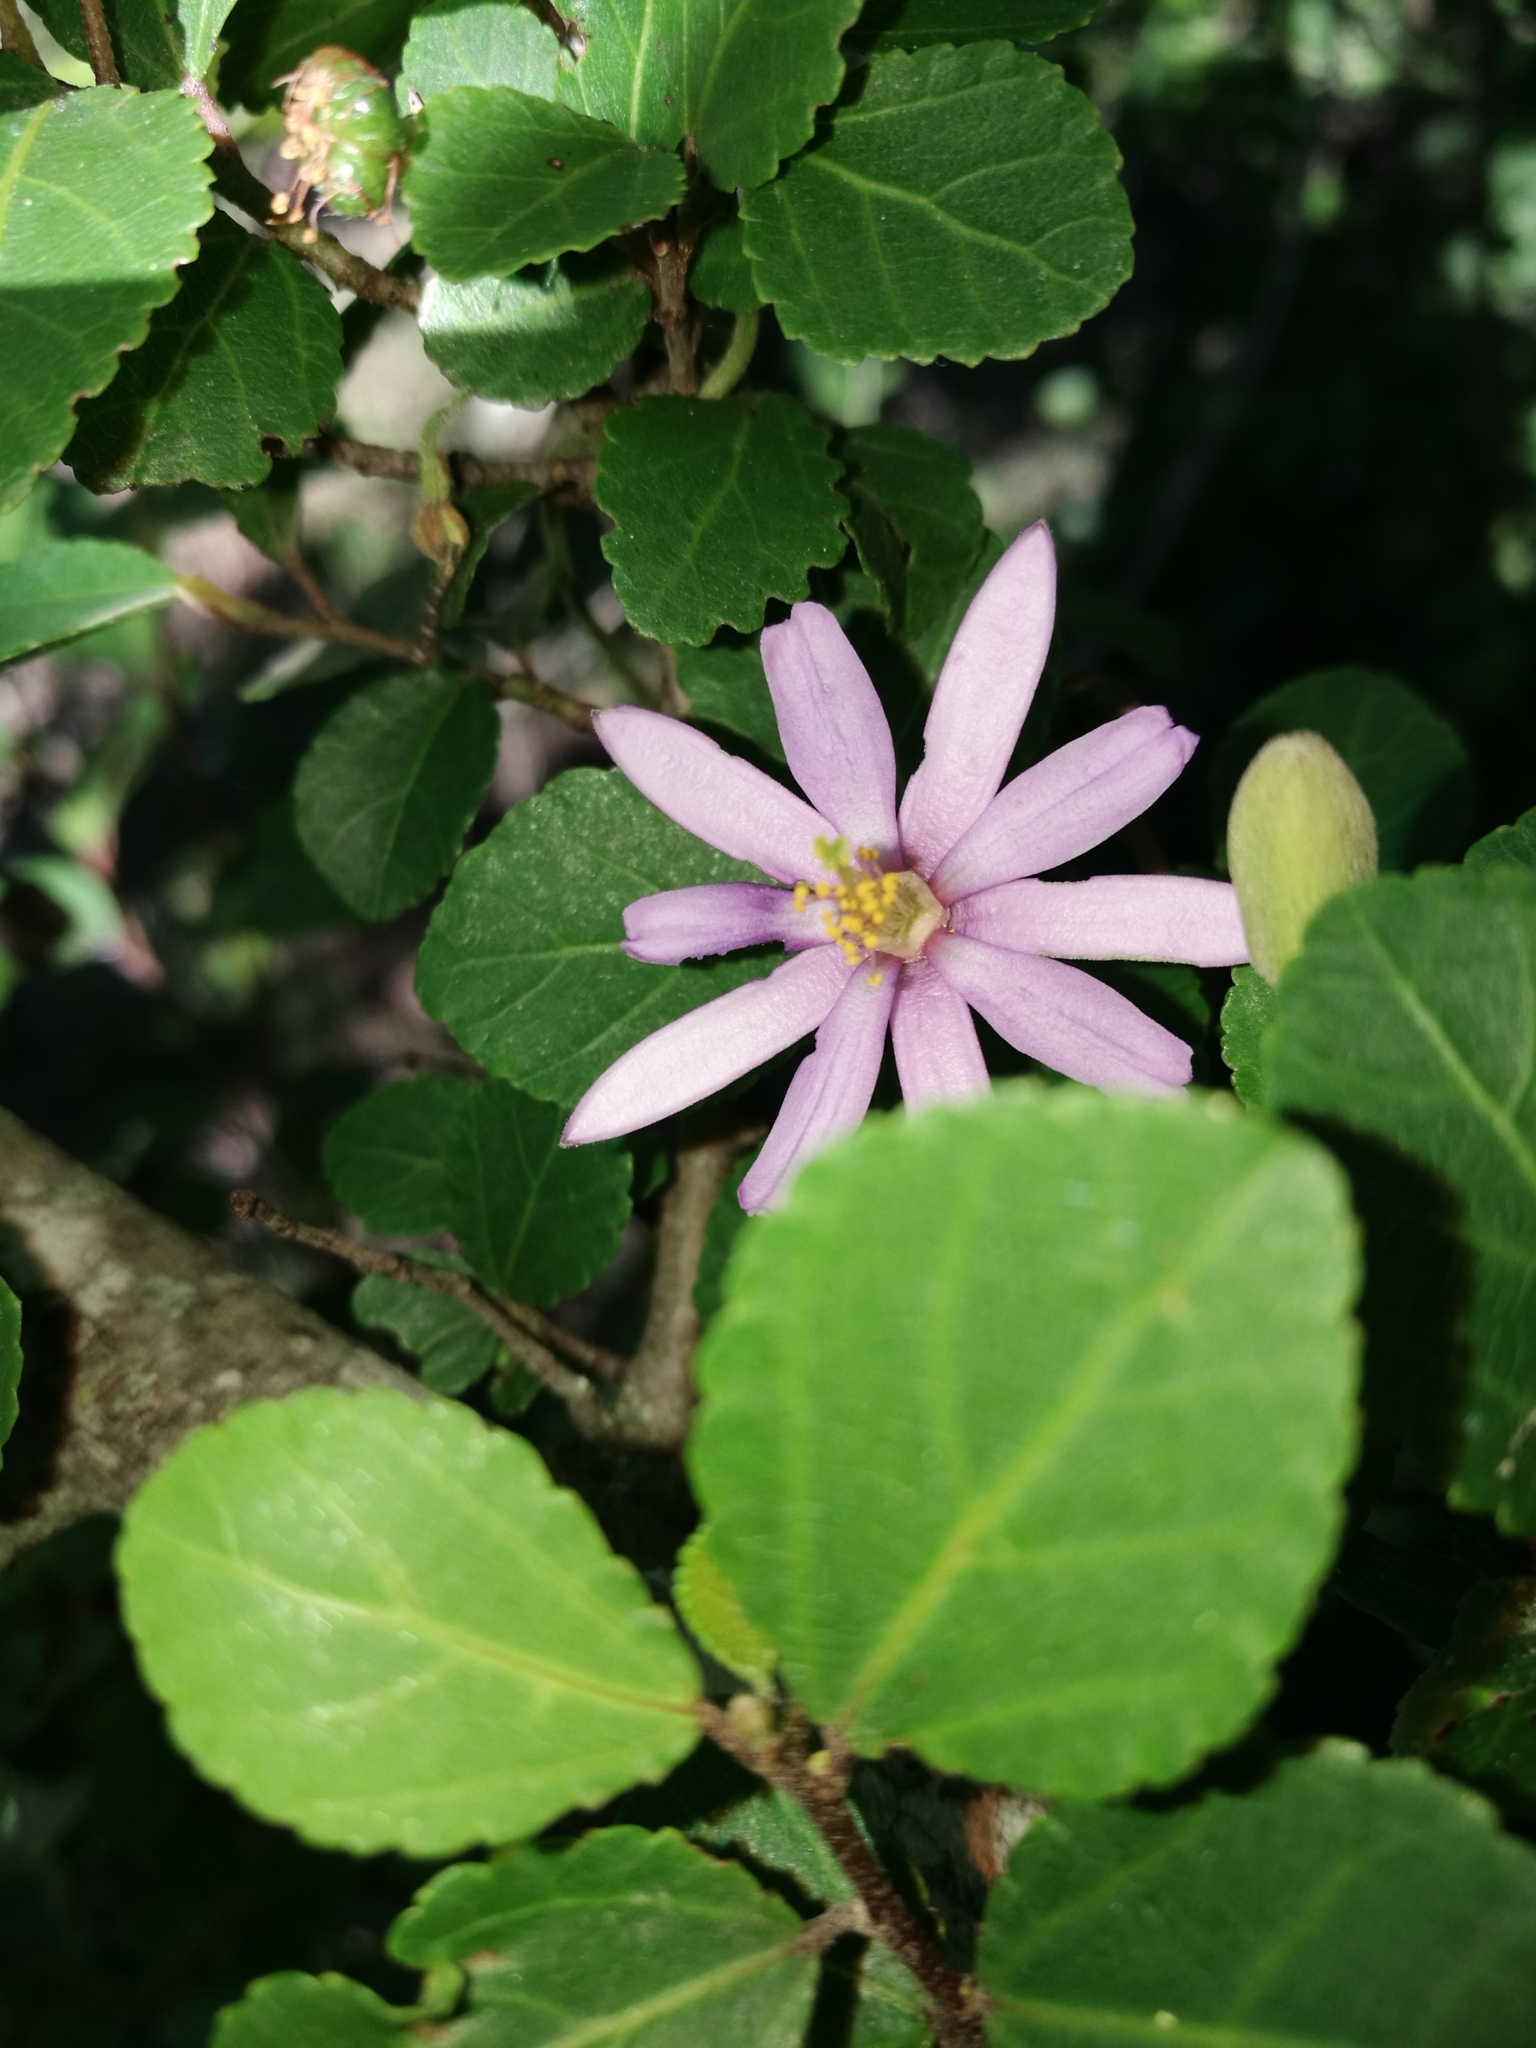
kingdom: Plantae
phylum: Tracheophyta
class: Magnoliopsida
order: Malvales
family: Malvaceae
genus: Grewia
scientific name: Grewia occidentalis
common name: Crossberry
